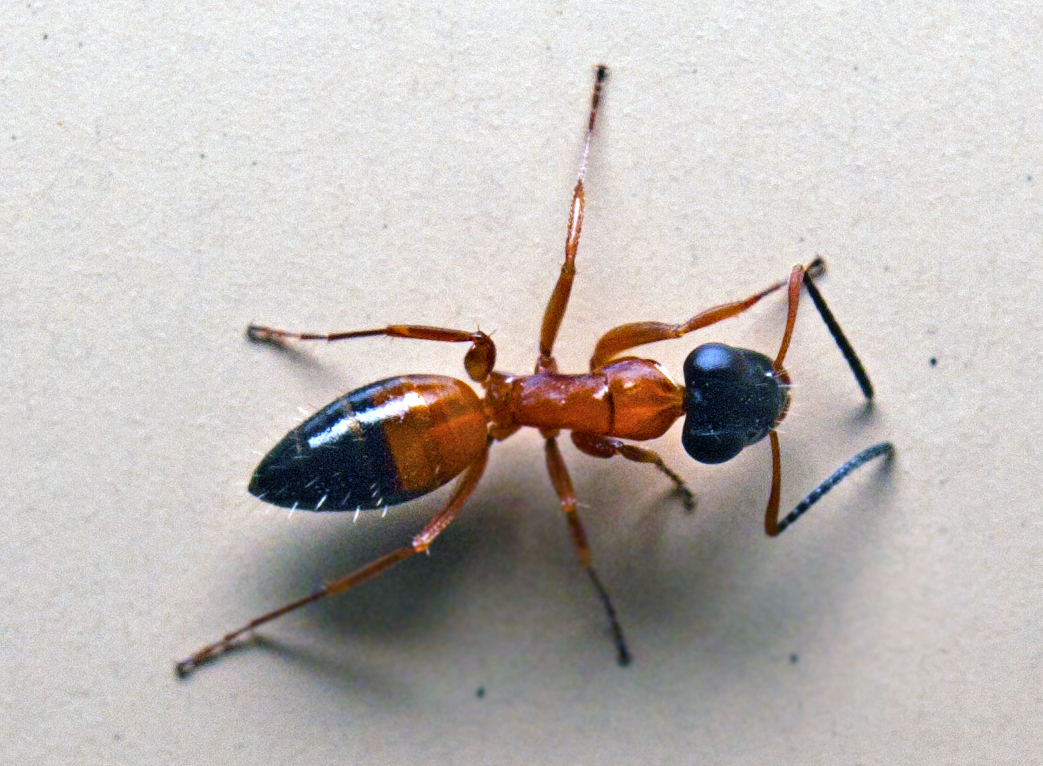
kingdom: Animalia
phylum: Arthropoda
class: Insecta
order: Hymenoptera
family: Formicidae
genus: Opisthopsis
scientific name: Opisthopsis rufithorax
